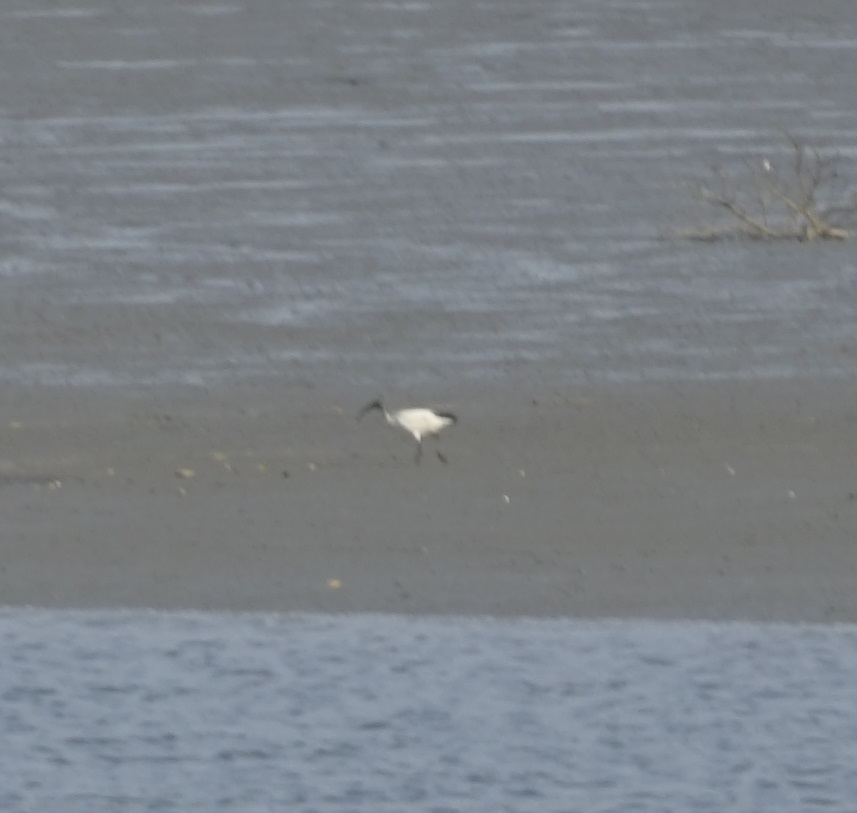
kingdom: Animalia
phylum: Chordata
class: Aves
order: Pelecaniformes
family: Threskiornithidae
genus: Threskiornis
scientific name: Threskiornis aethiopicus
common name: Sacred ibis
